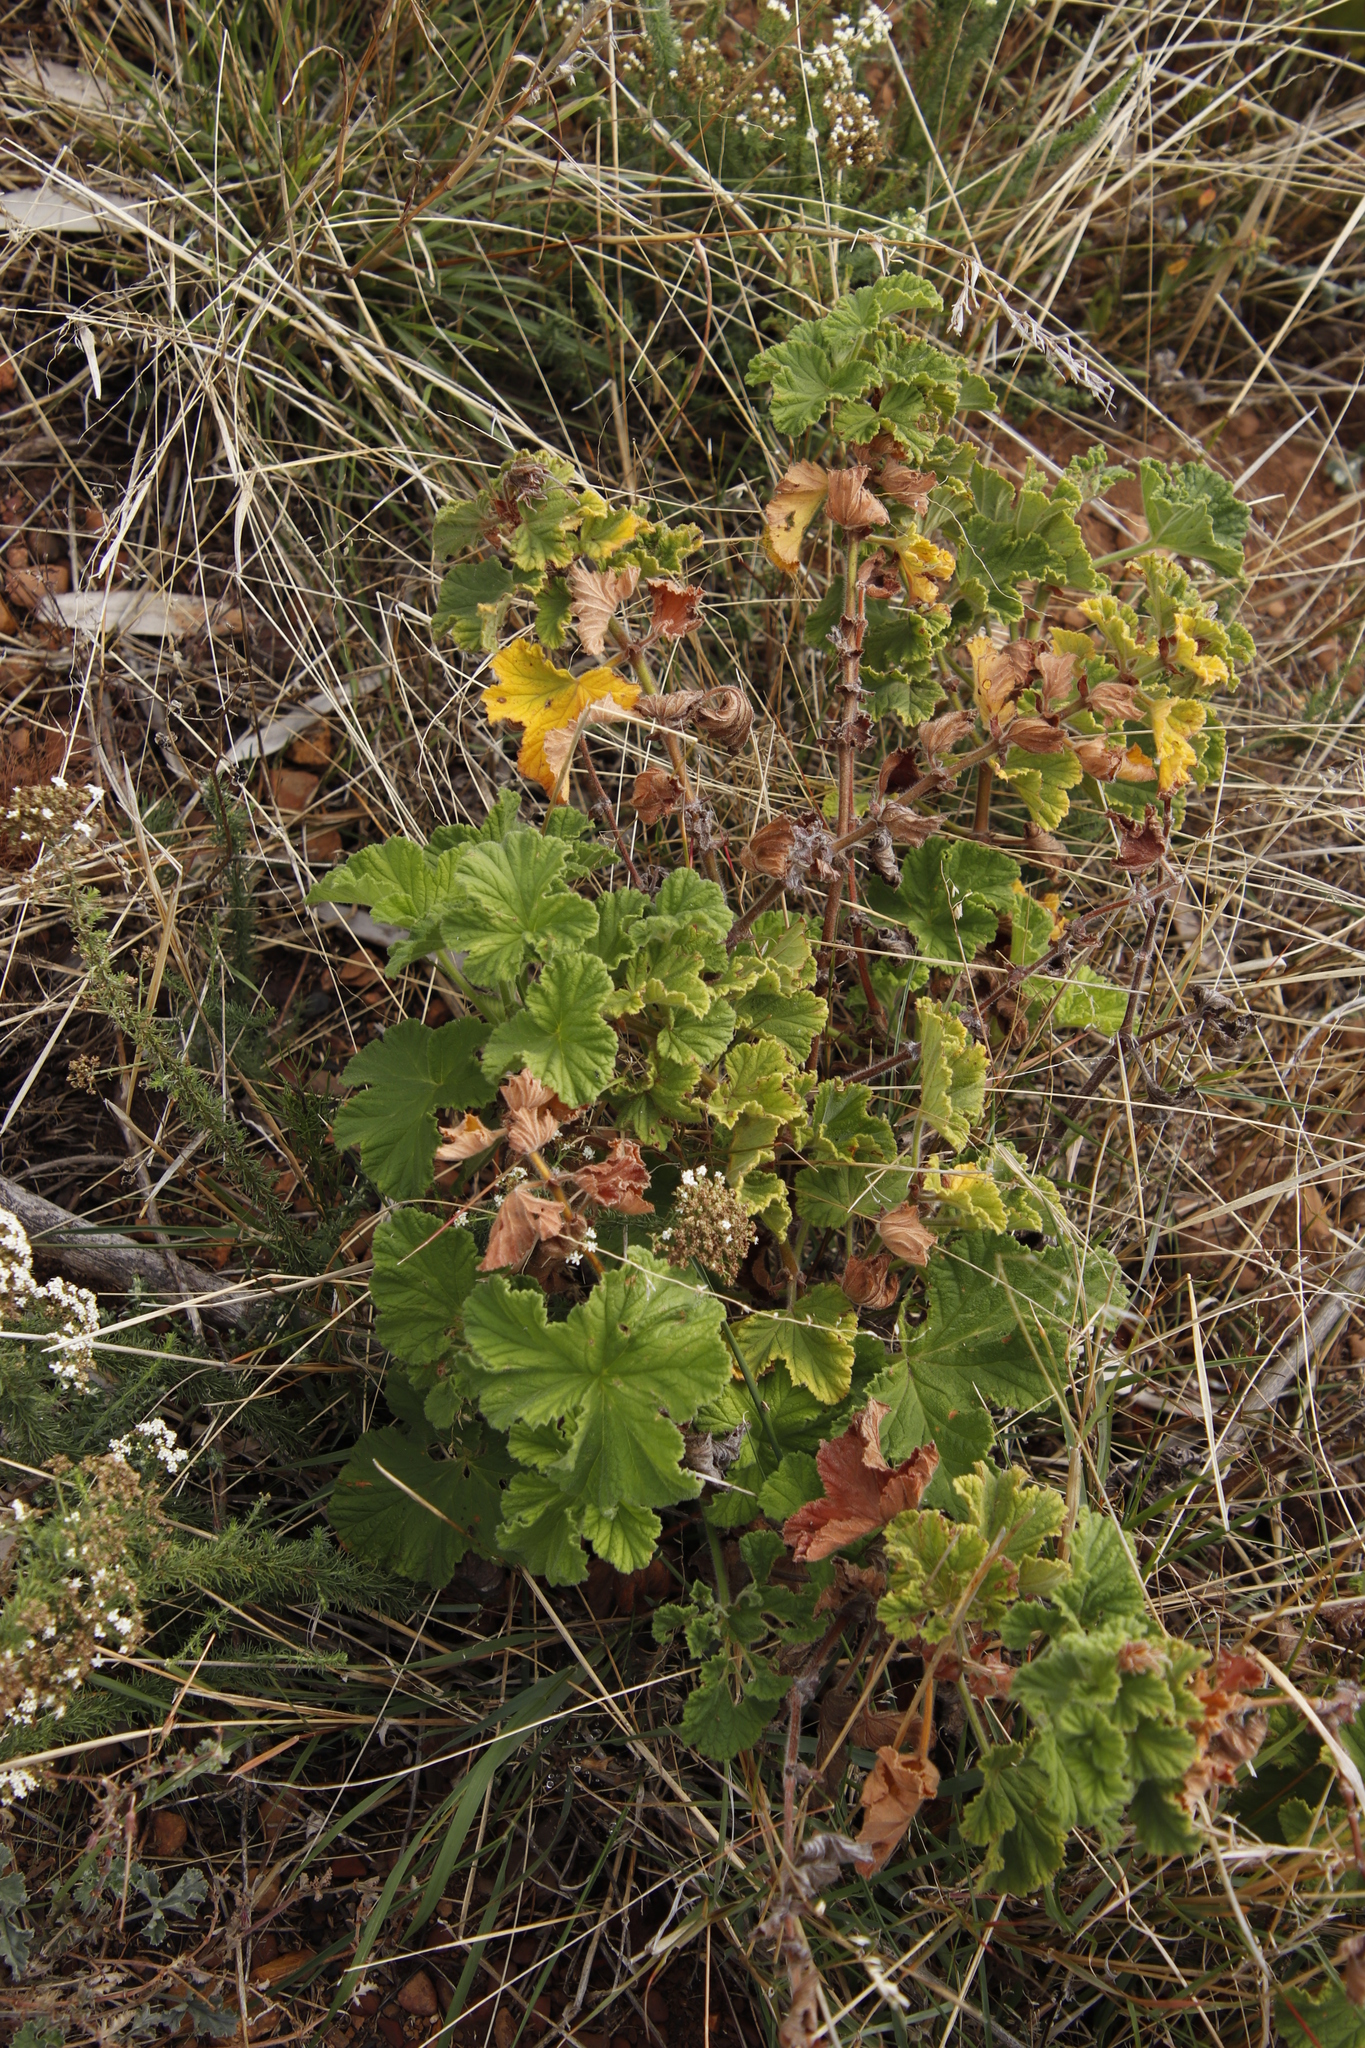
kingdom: Plantae
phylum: Tracheophyta
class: Magnoliopsida
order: Geraniales
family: Geraniaceae
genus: Pelargonium
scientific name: Pelargonium vitifolium
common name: Grapeleaf geranium
